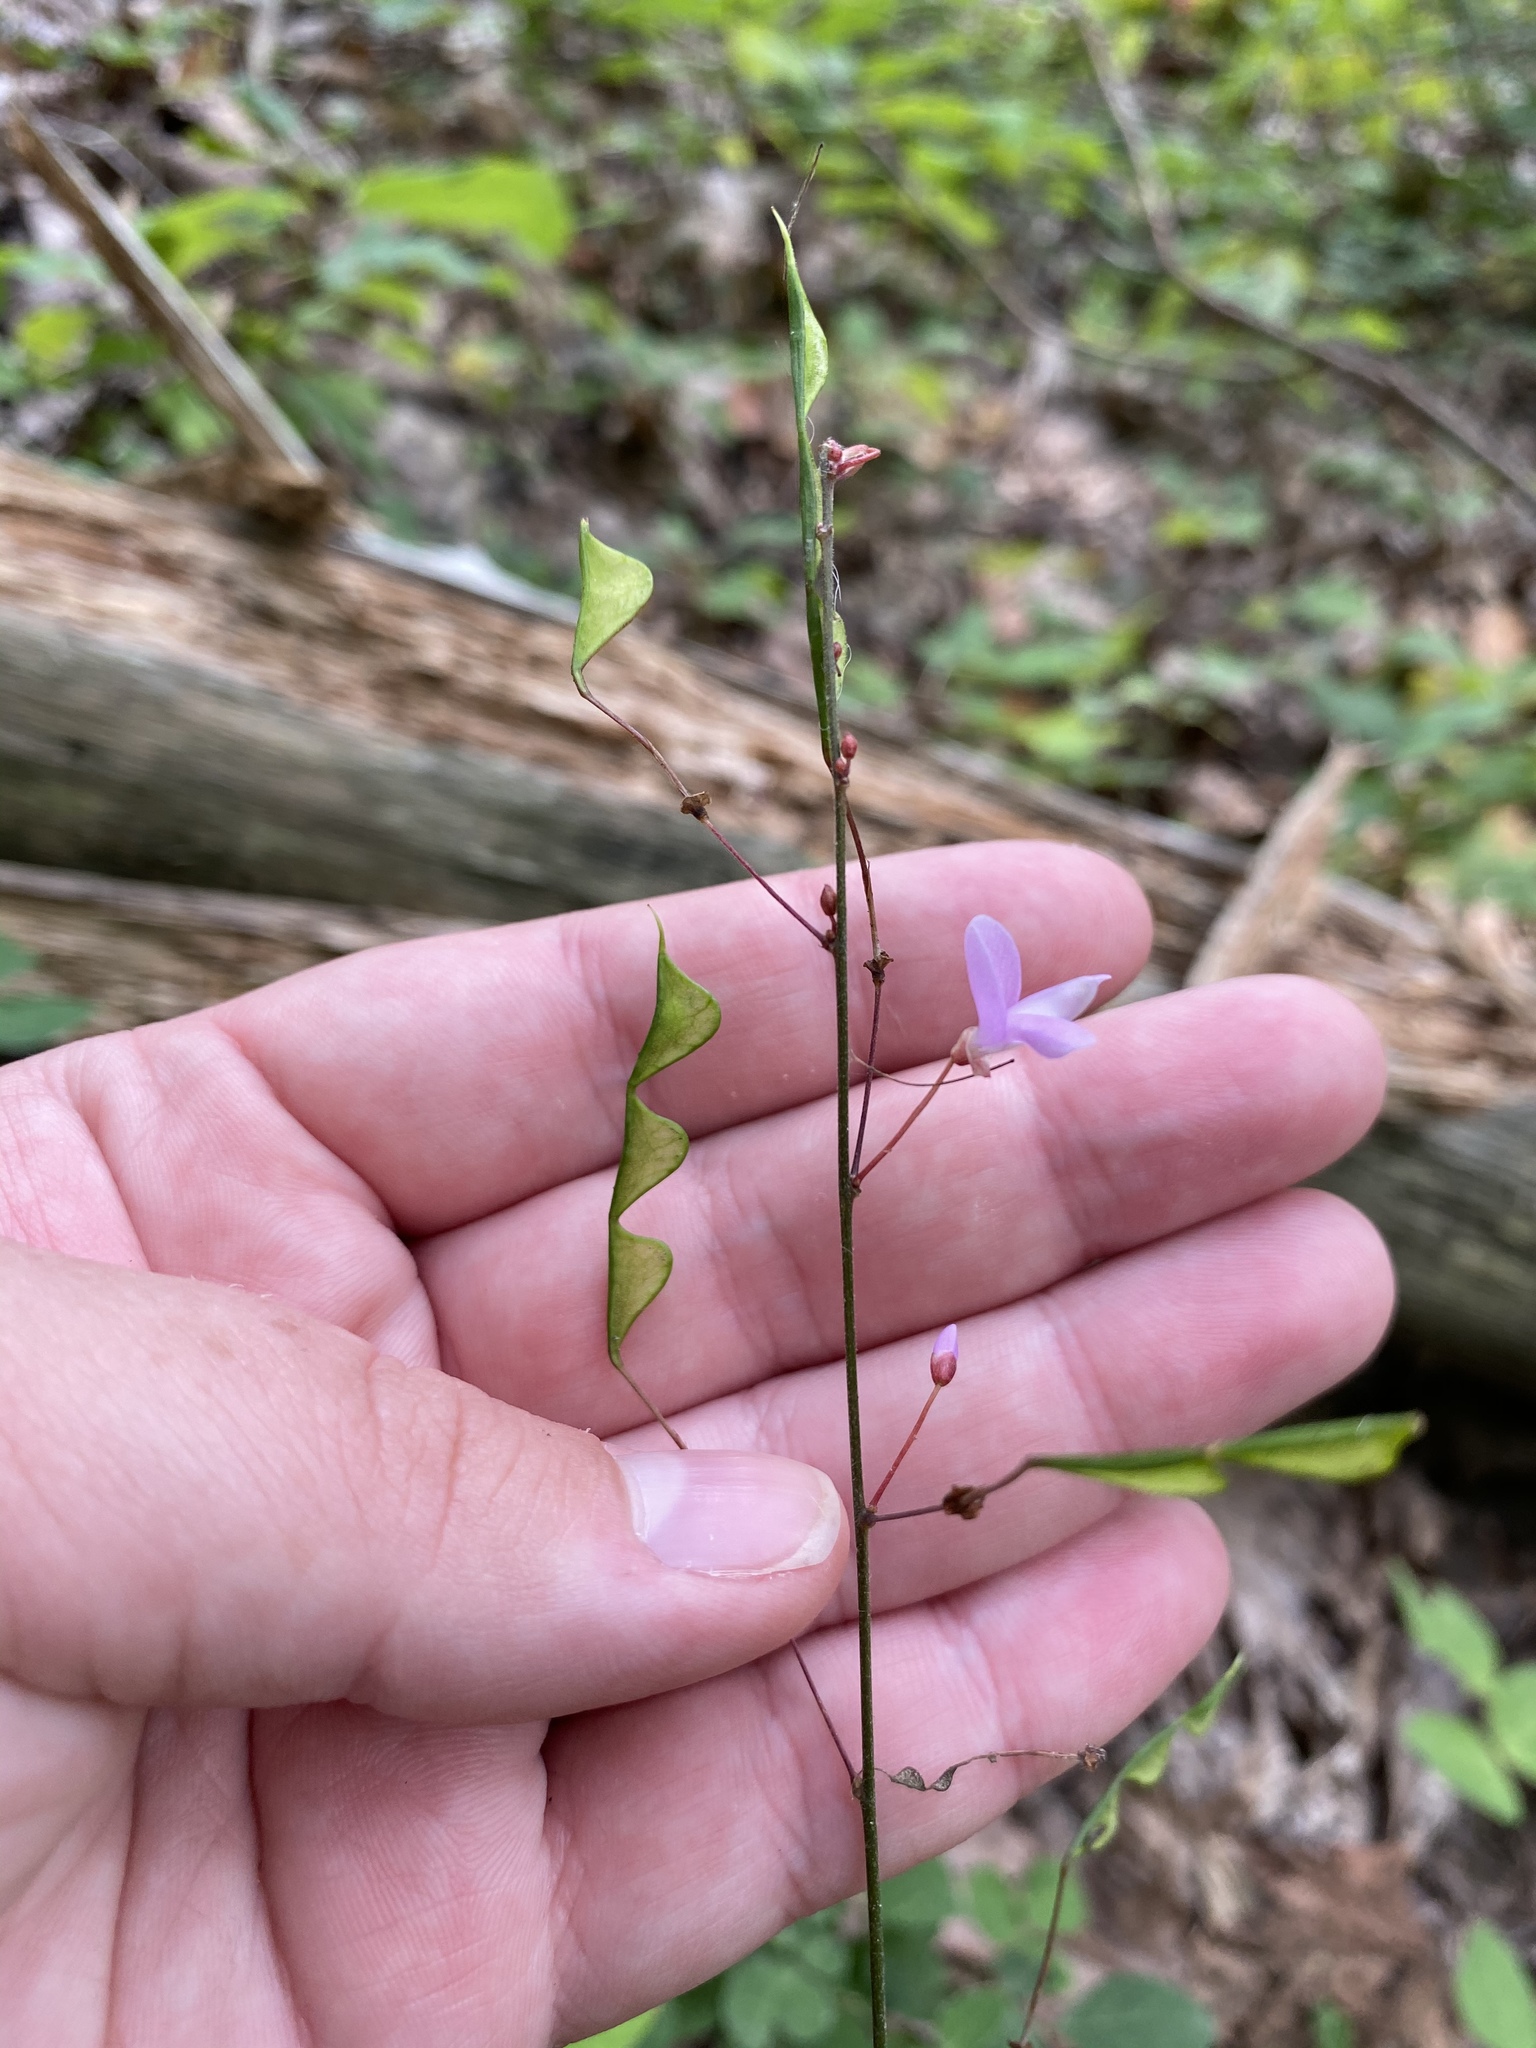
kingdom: Plantae
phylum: Tracheophyta
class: Magnoliopsida
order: Fabales
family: Fabaceae
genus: Hylodesmum
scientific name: Hylodesmum nudiflorum
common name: Bare-stemmed tick-trefoil
